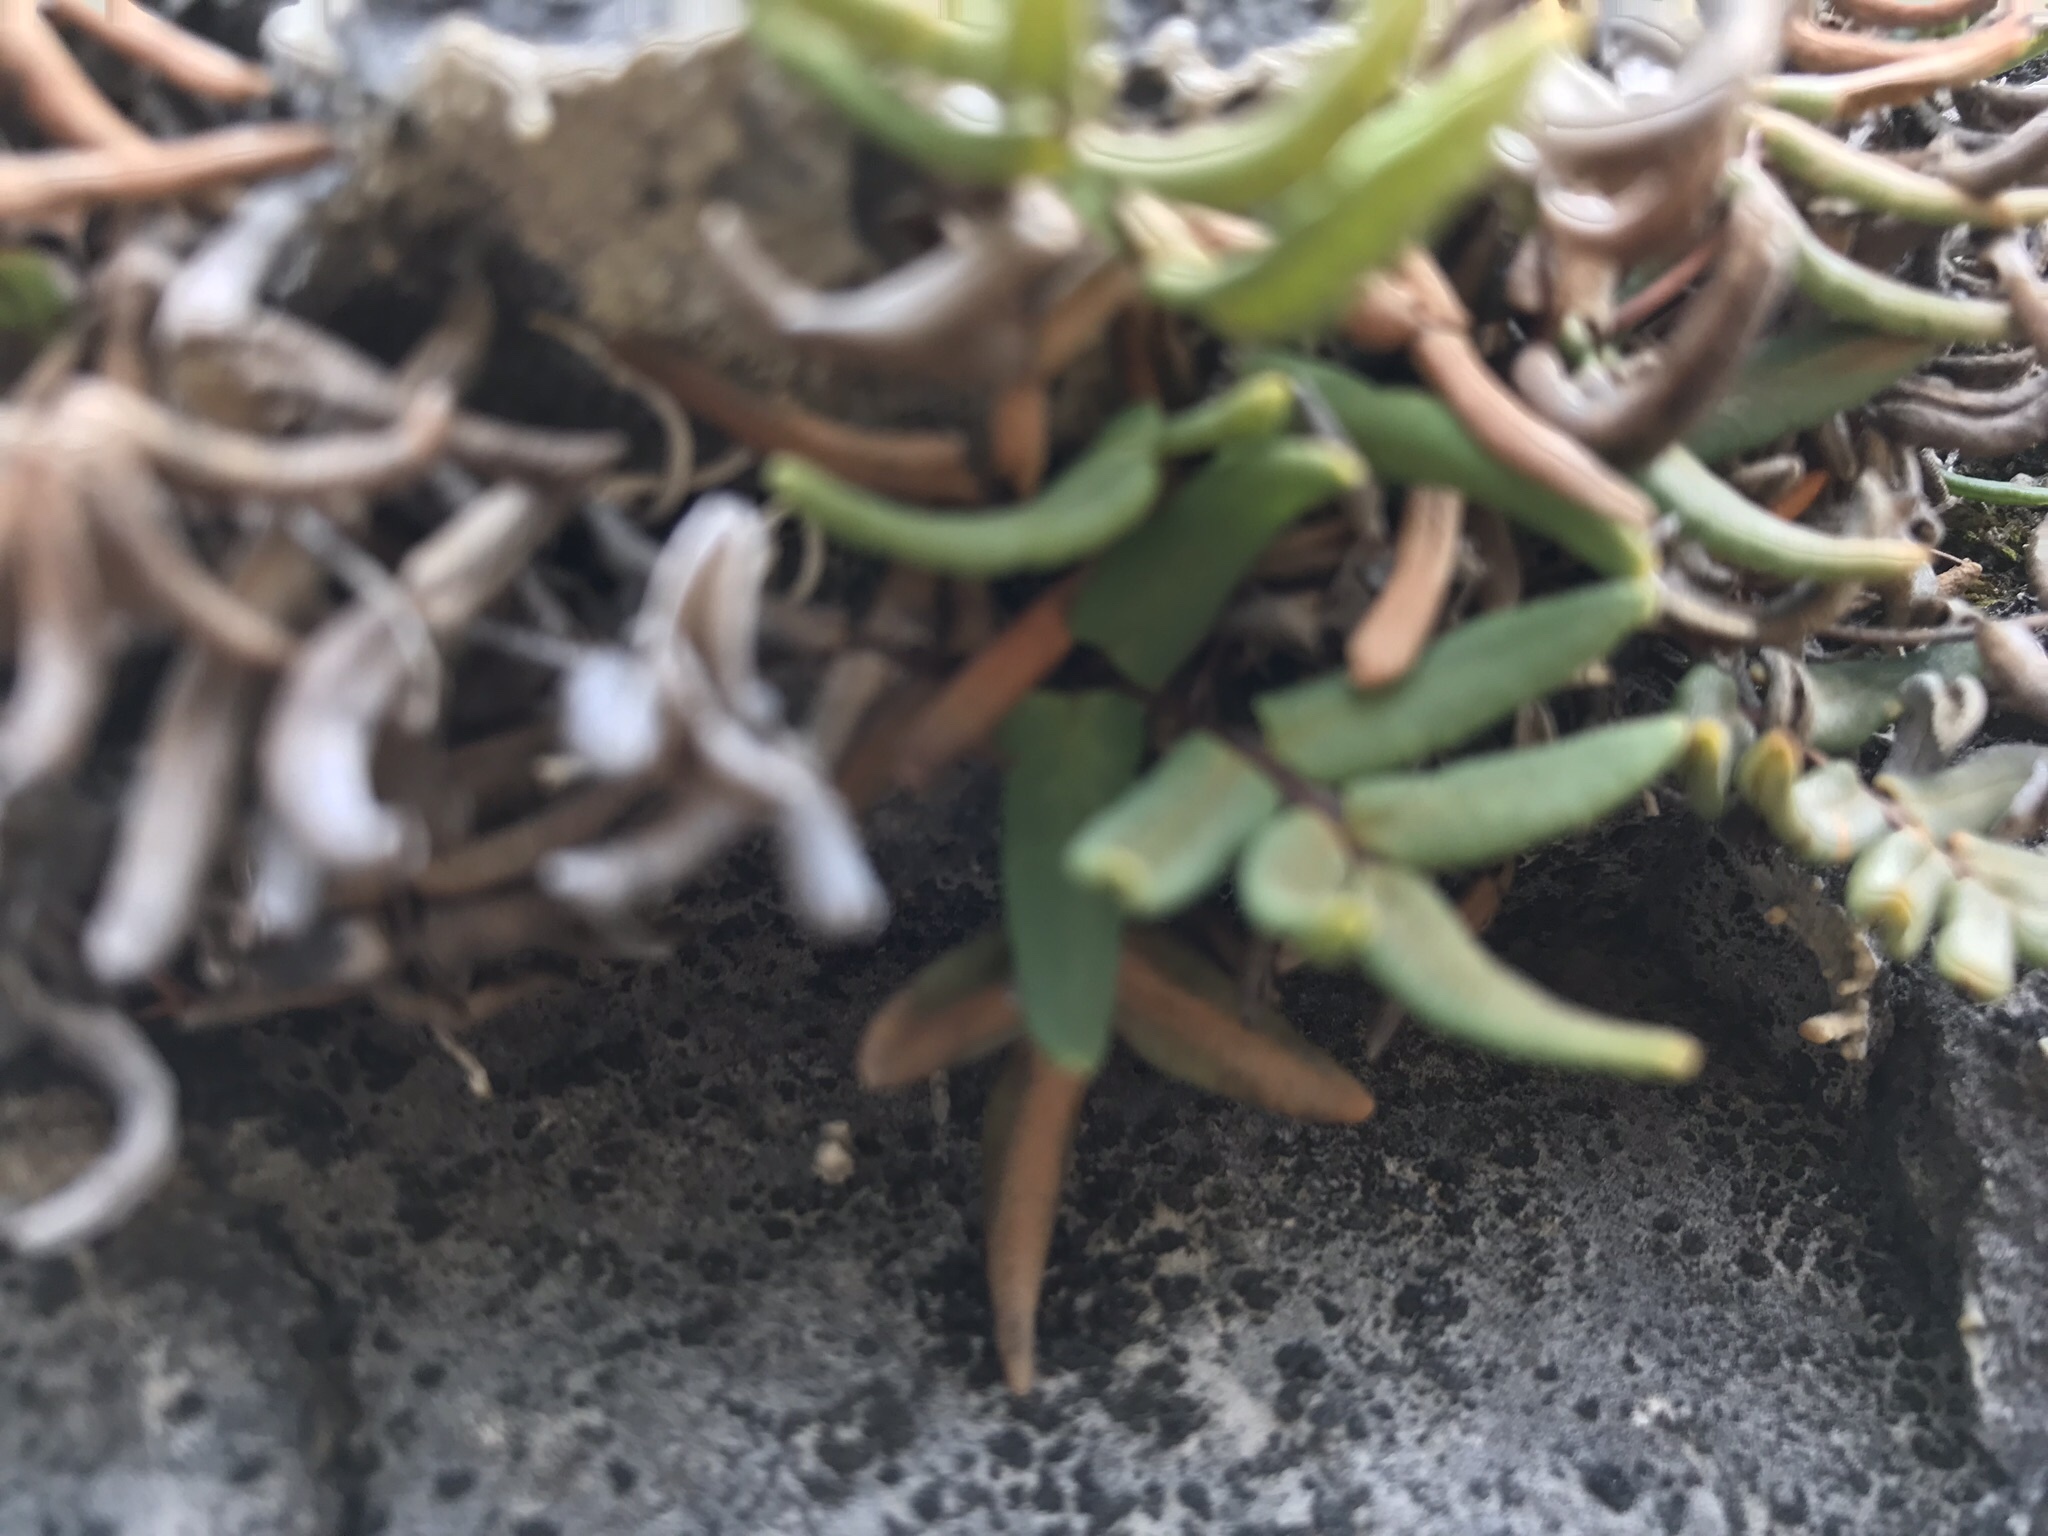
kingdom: Plantae
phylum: Tracheophyta
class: Polypodiopsida
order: Polypodiales
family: Pteridaceae
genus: Pellaea
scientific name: Pellaea glabella
